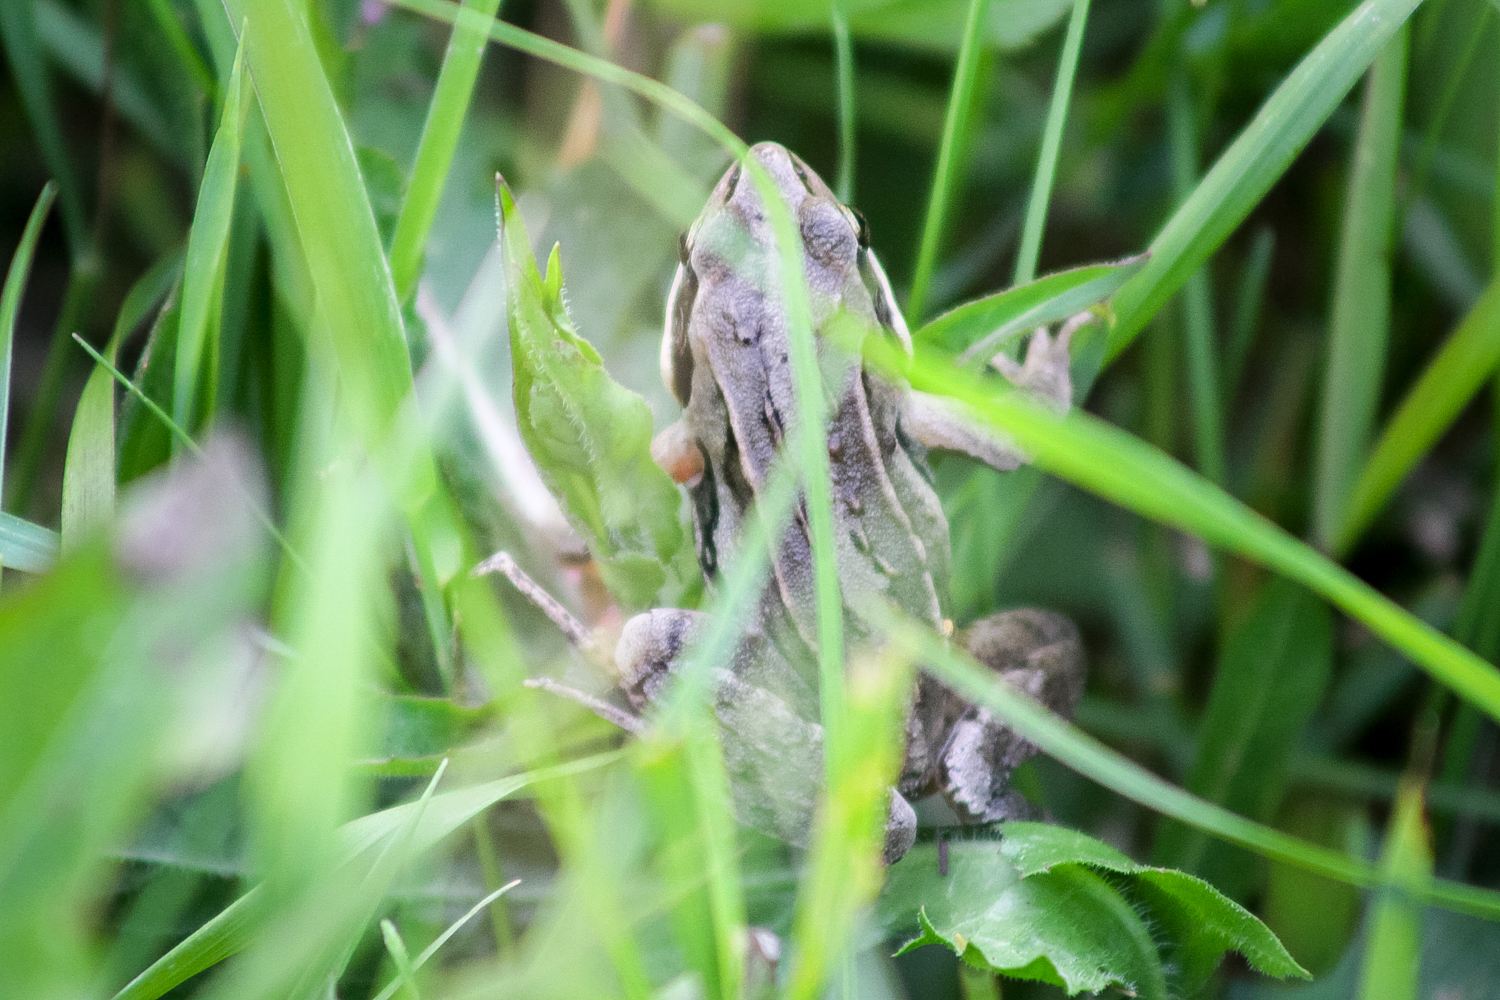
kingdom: Animalia
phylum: Chordata
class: Amphibia
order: Anura
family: Ranidae
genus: Rana
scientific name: Rana arvalis
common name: Moor frog
